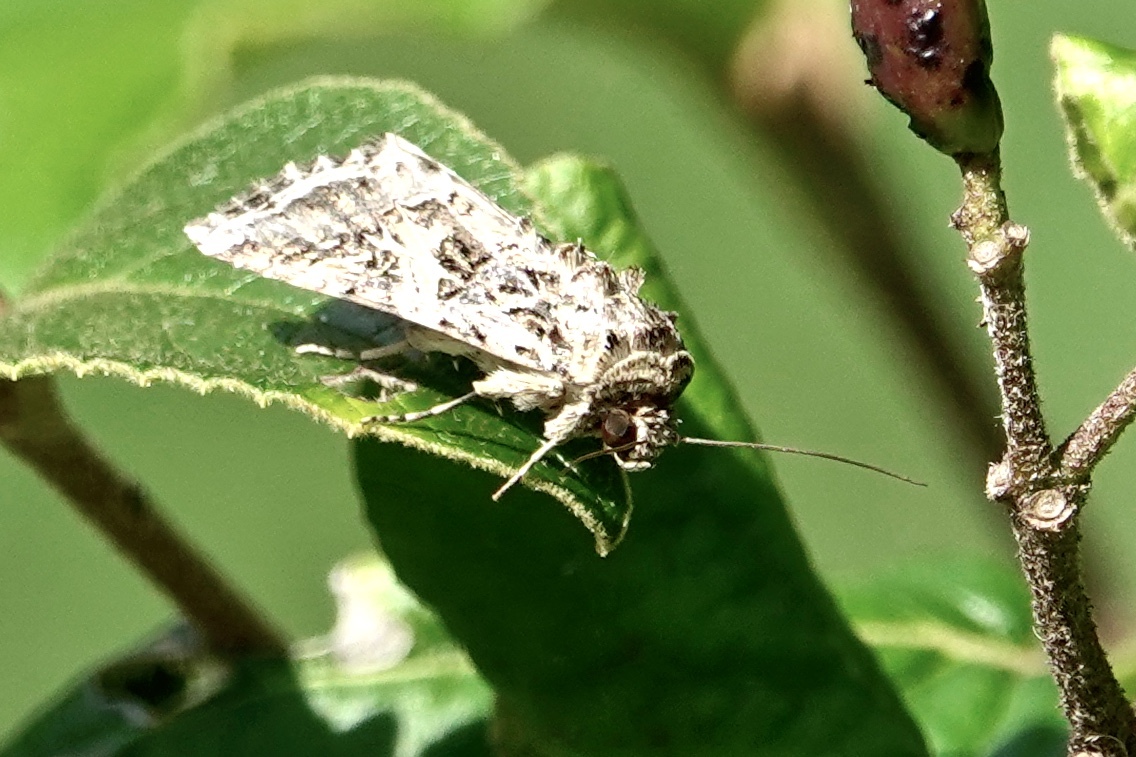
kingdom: Animalia
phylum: Arthropoda
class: Insecta
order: Lepidoptera
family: Noctuidae
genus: Spodoptera
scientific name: Spodoptera ornithogalli
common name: Yellow-striped armyworm
